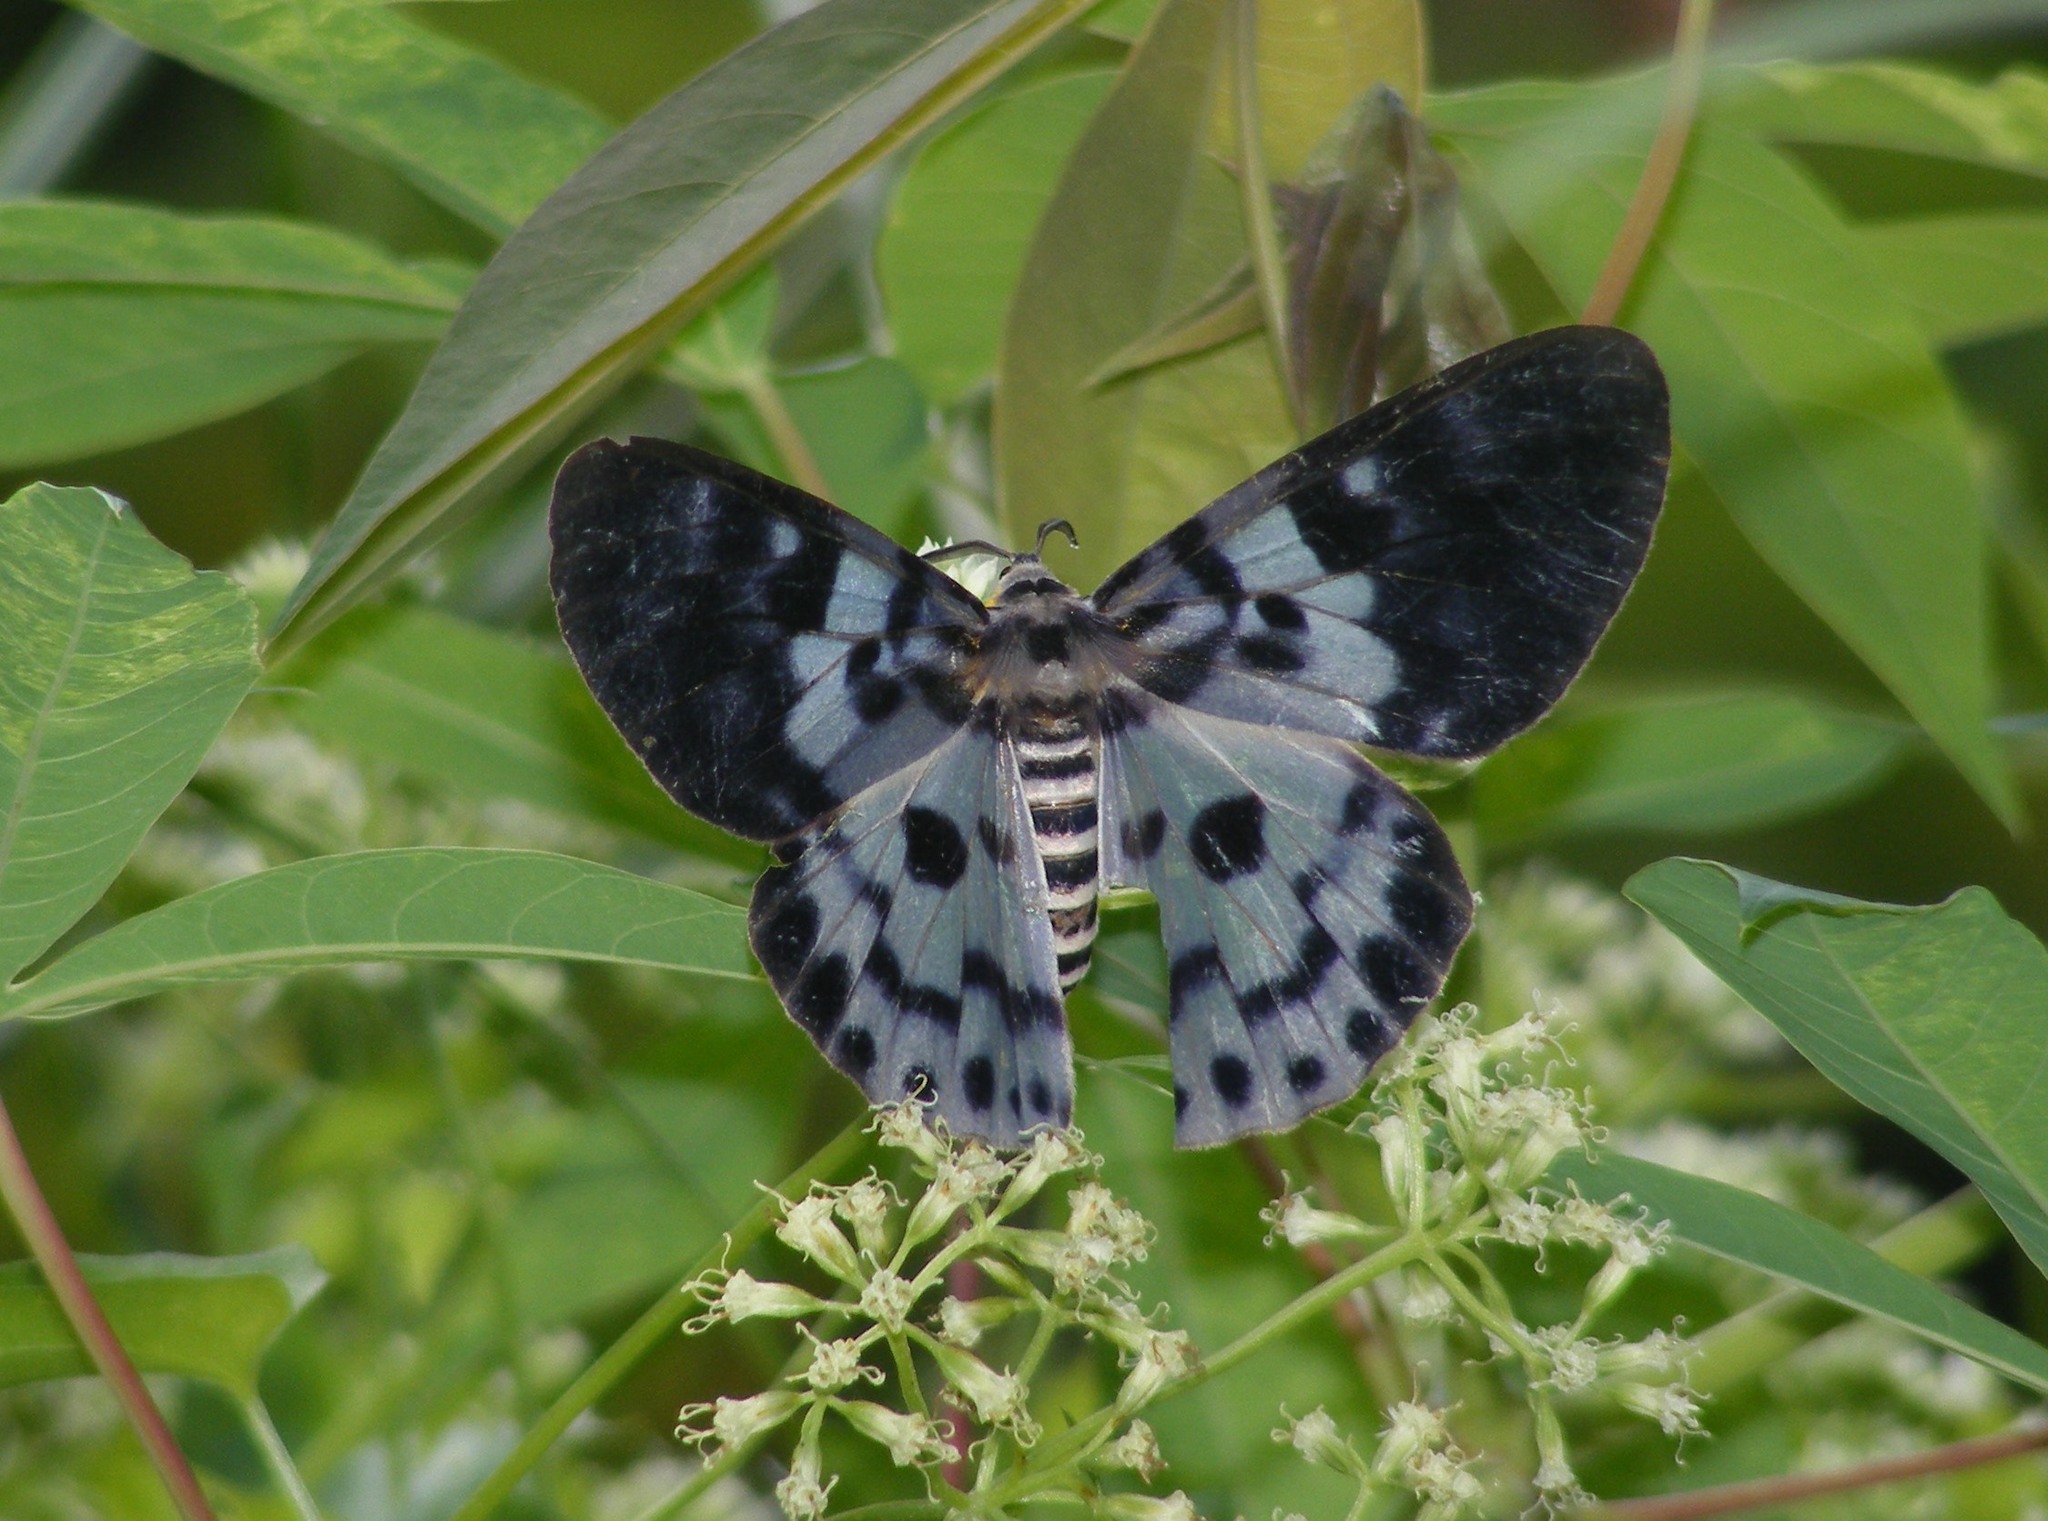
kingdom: Animalia
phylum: Arthropoda
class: Insecta
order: Lepidoptera
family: Geometridae
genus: Dysphania
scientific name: Dysphania percota
